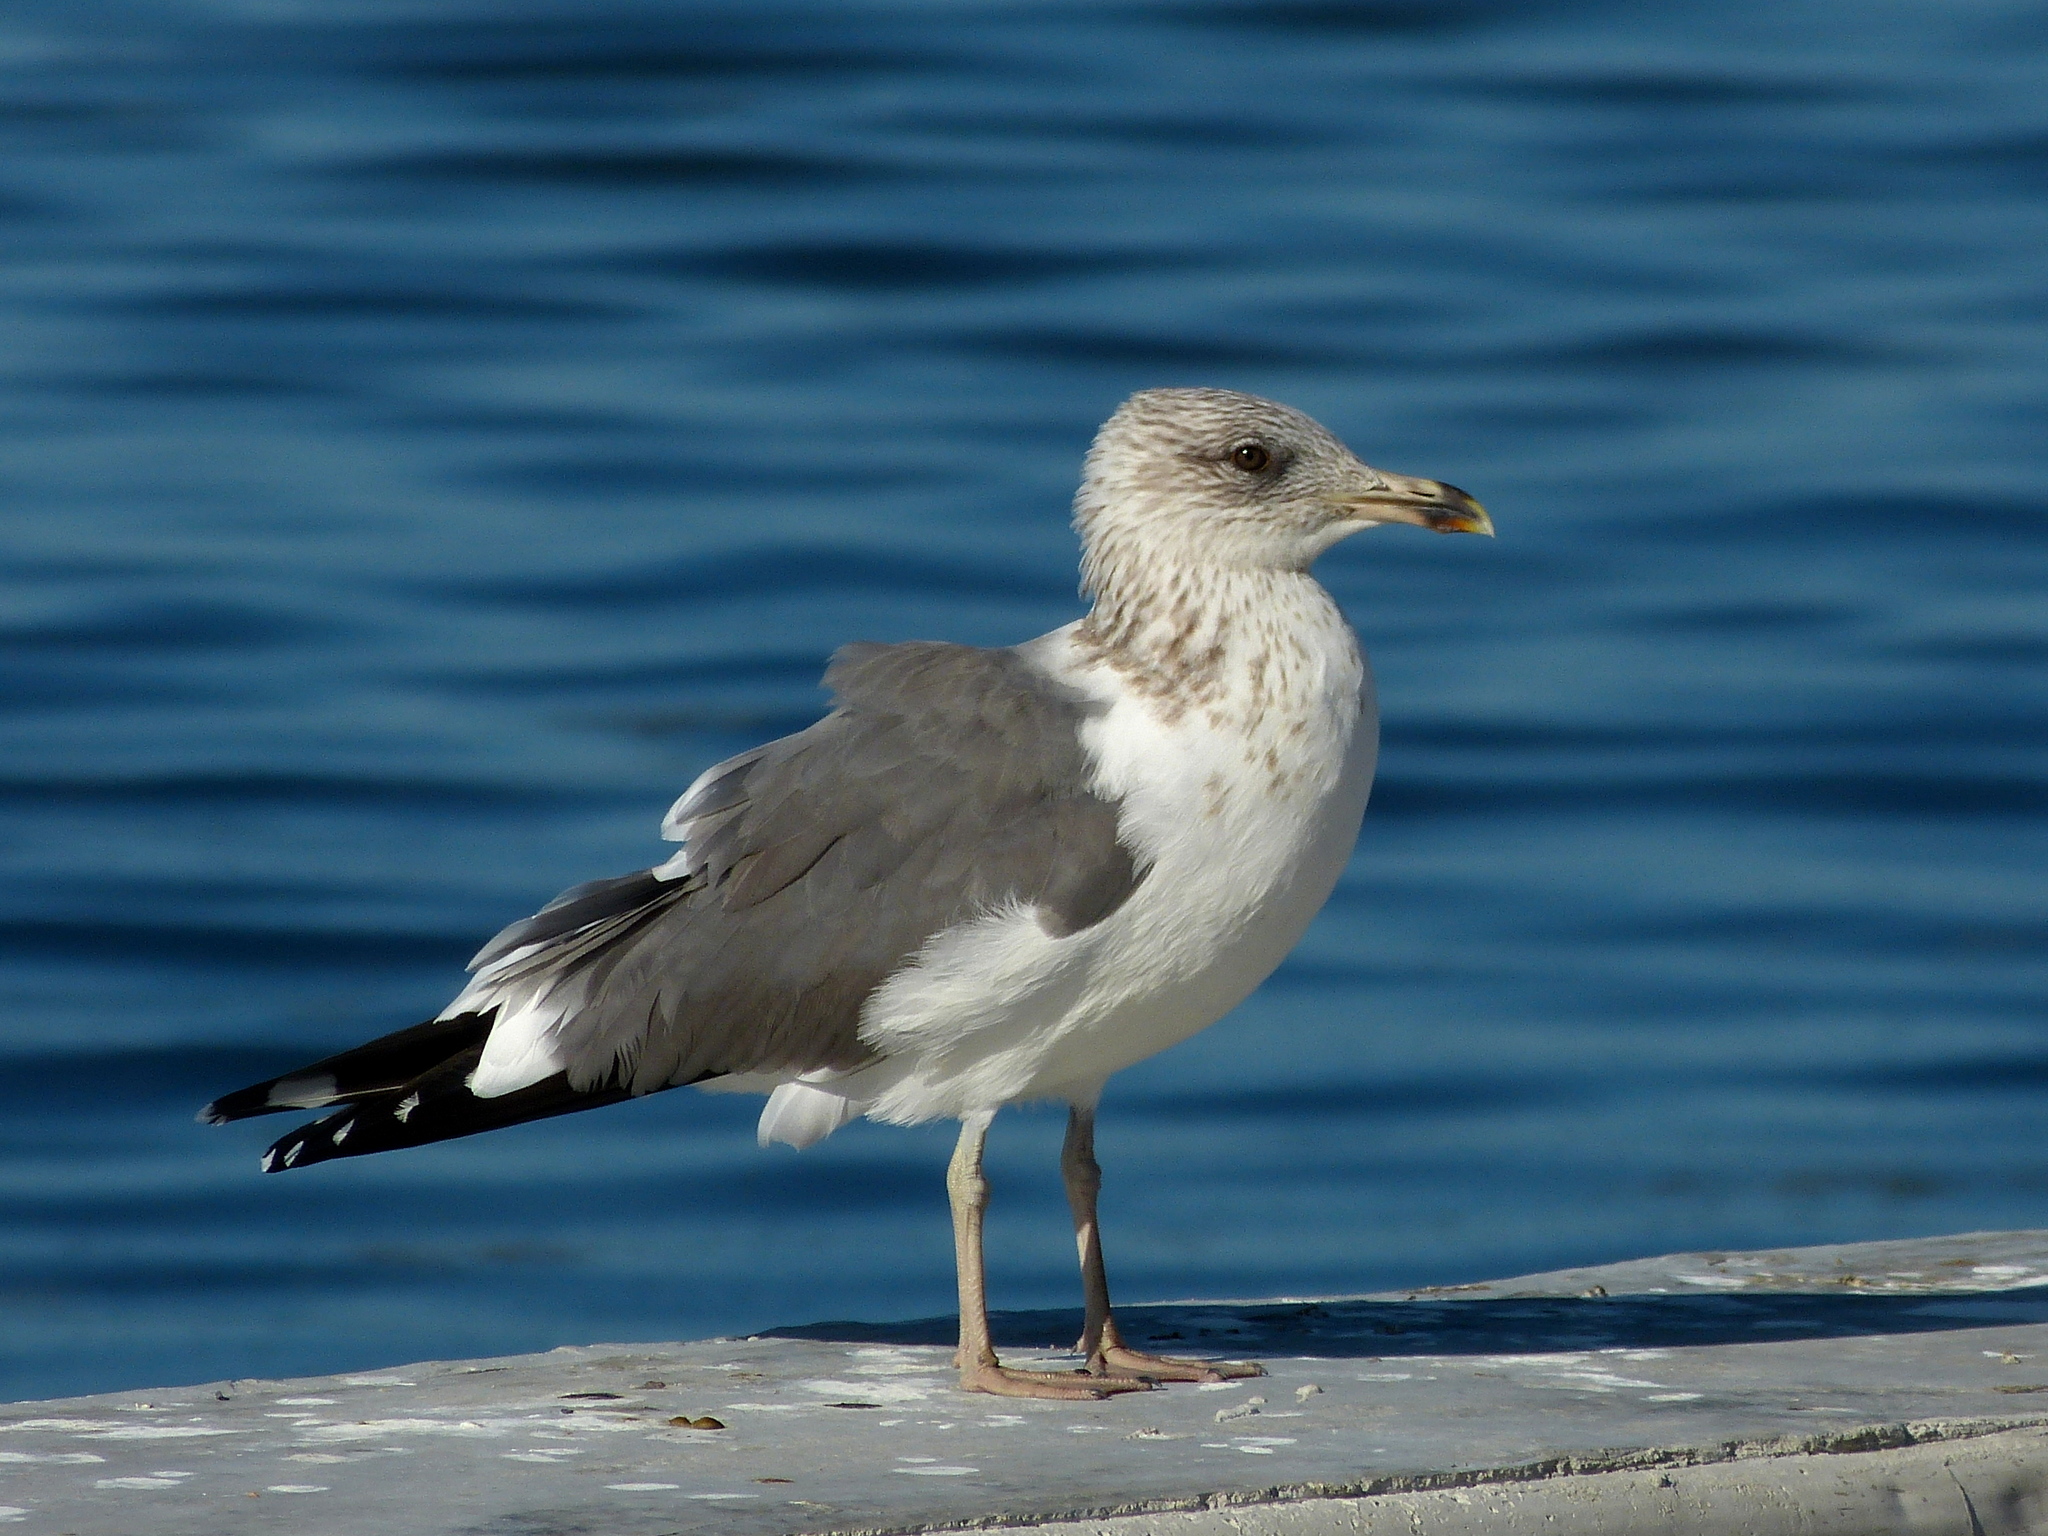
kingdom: Animalia
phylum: Chordata
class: Aves
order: Charadriiformes
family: Laridae
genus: Larus
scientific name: Larus fuscus
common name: Lesser black-backed gull
